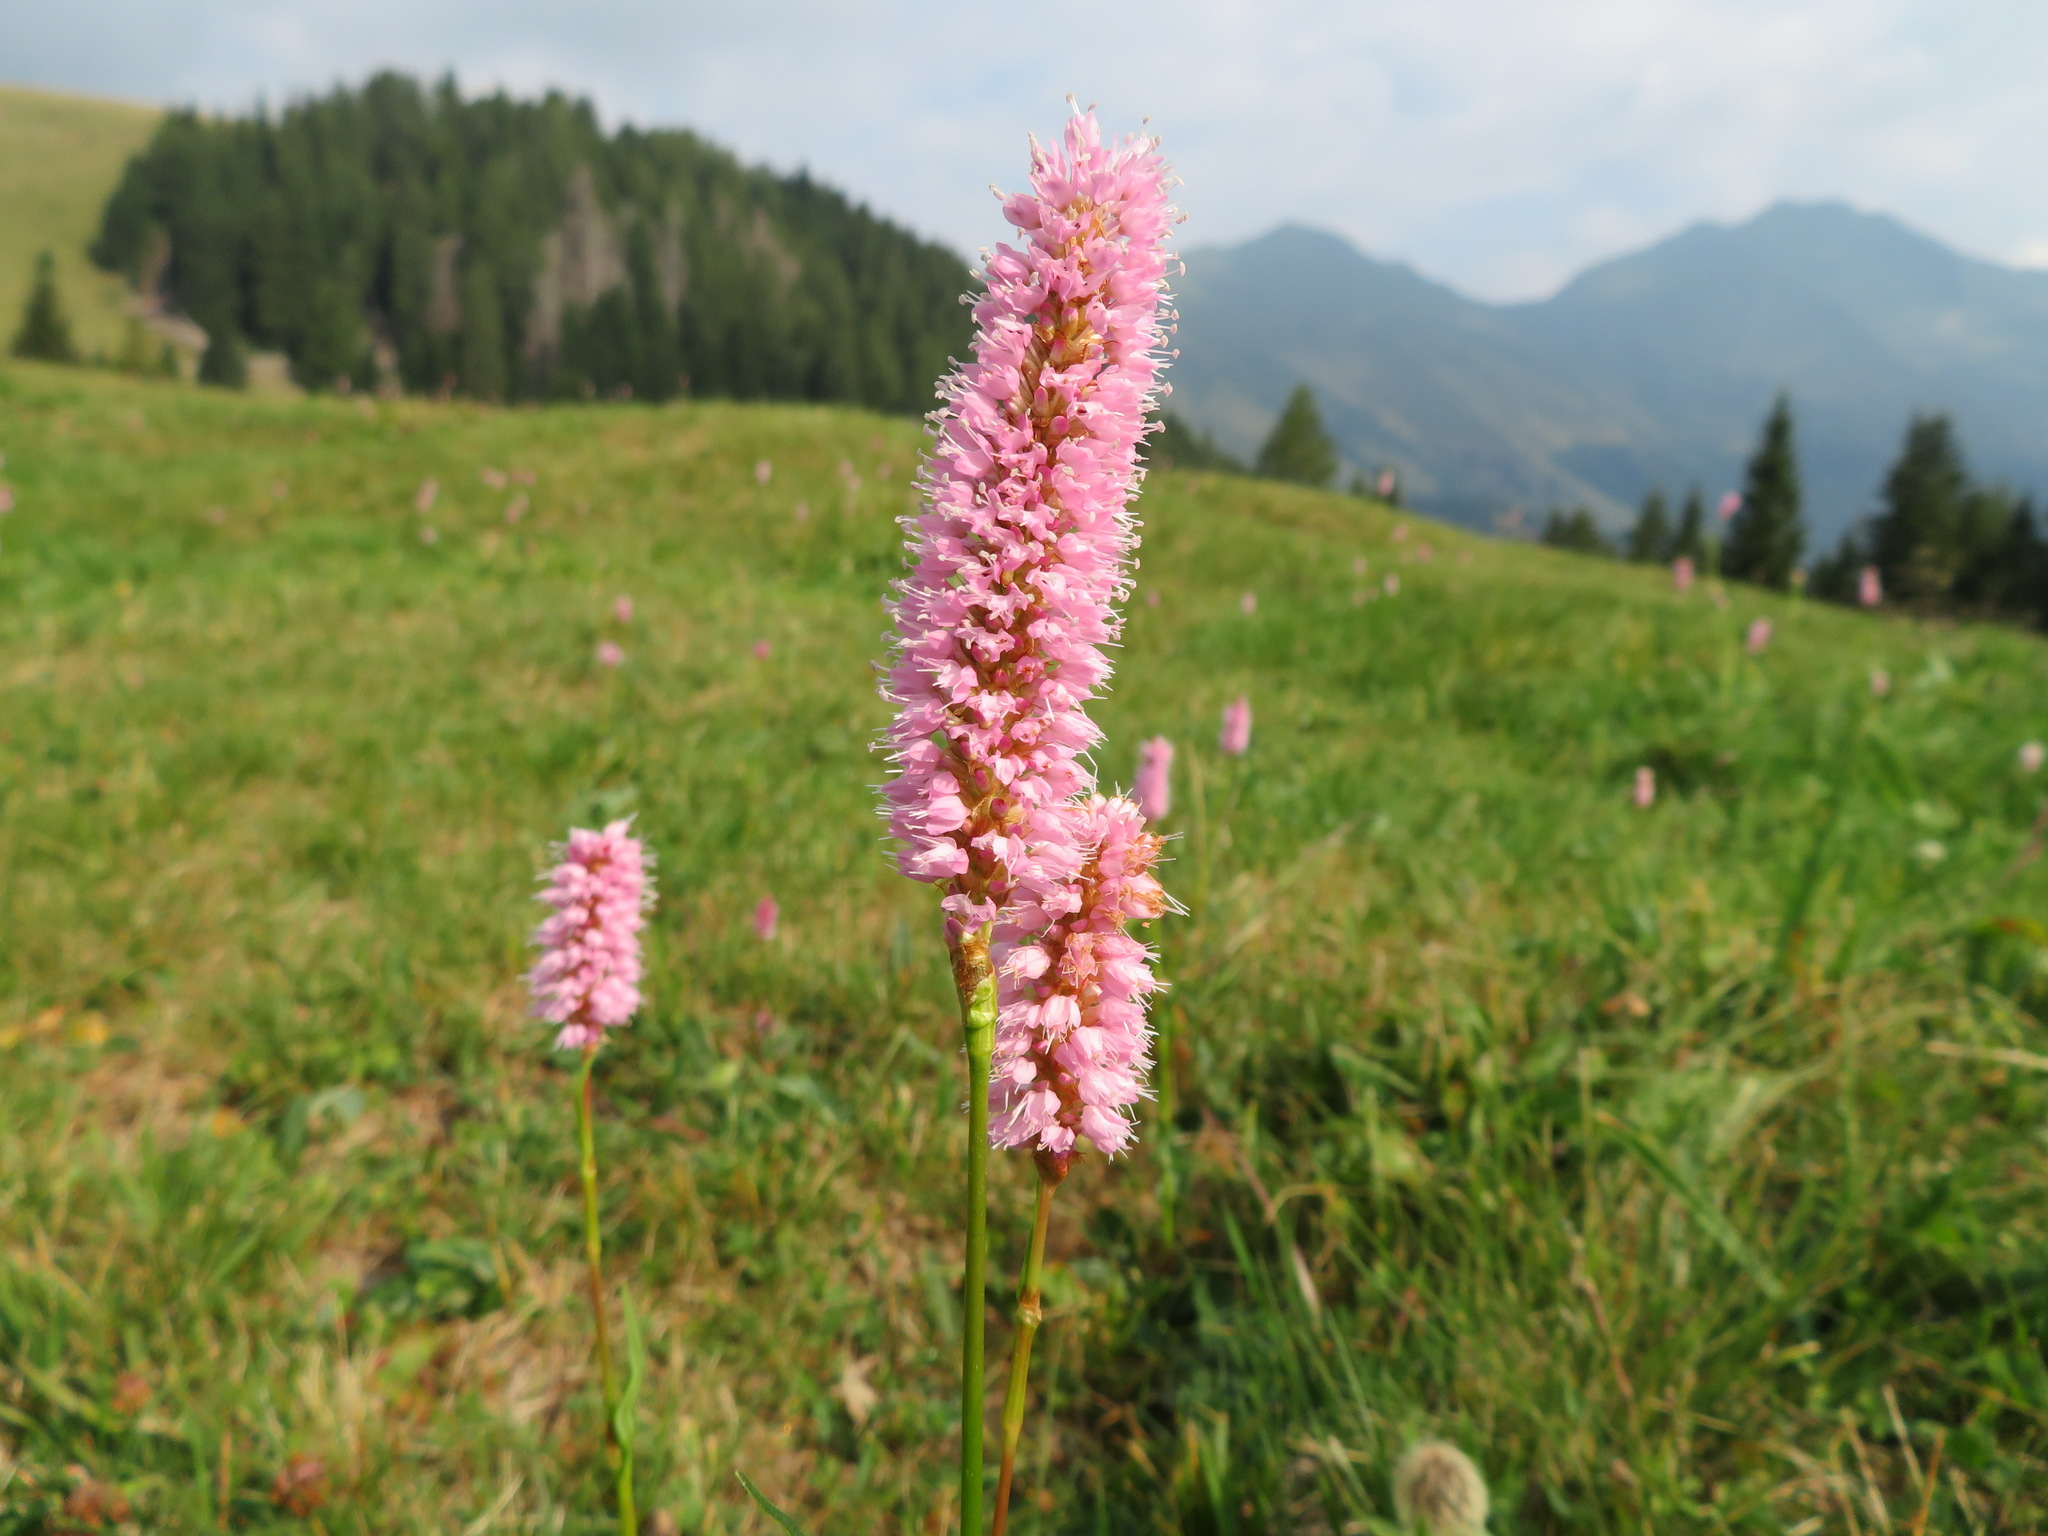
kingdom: Plantae
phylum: Tracheophyta
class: Magnoliopsida
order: Caryophyllales
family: Polygonaceae
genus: Bistorta
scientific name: Bistorta officinalis
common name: Common bistort
